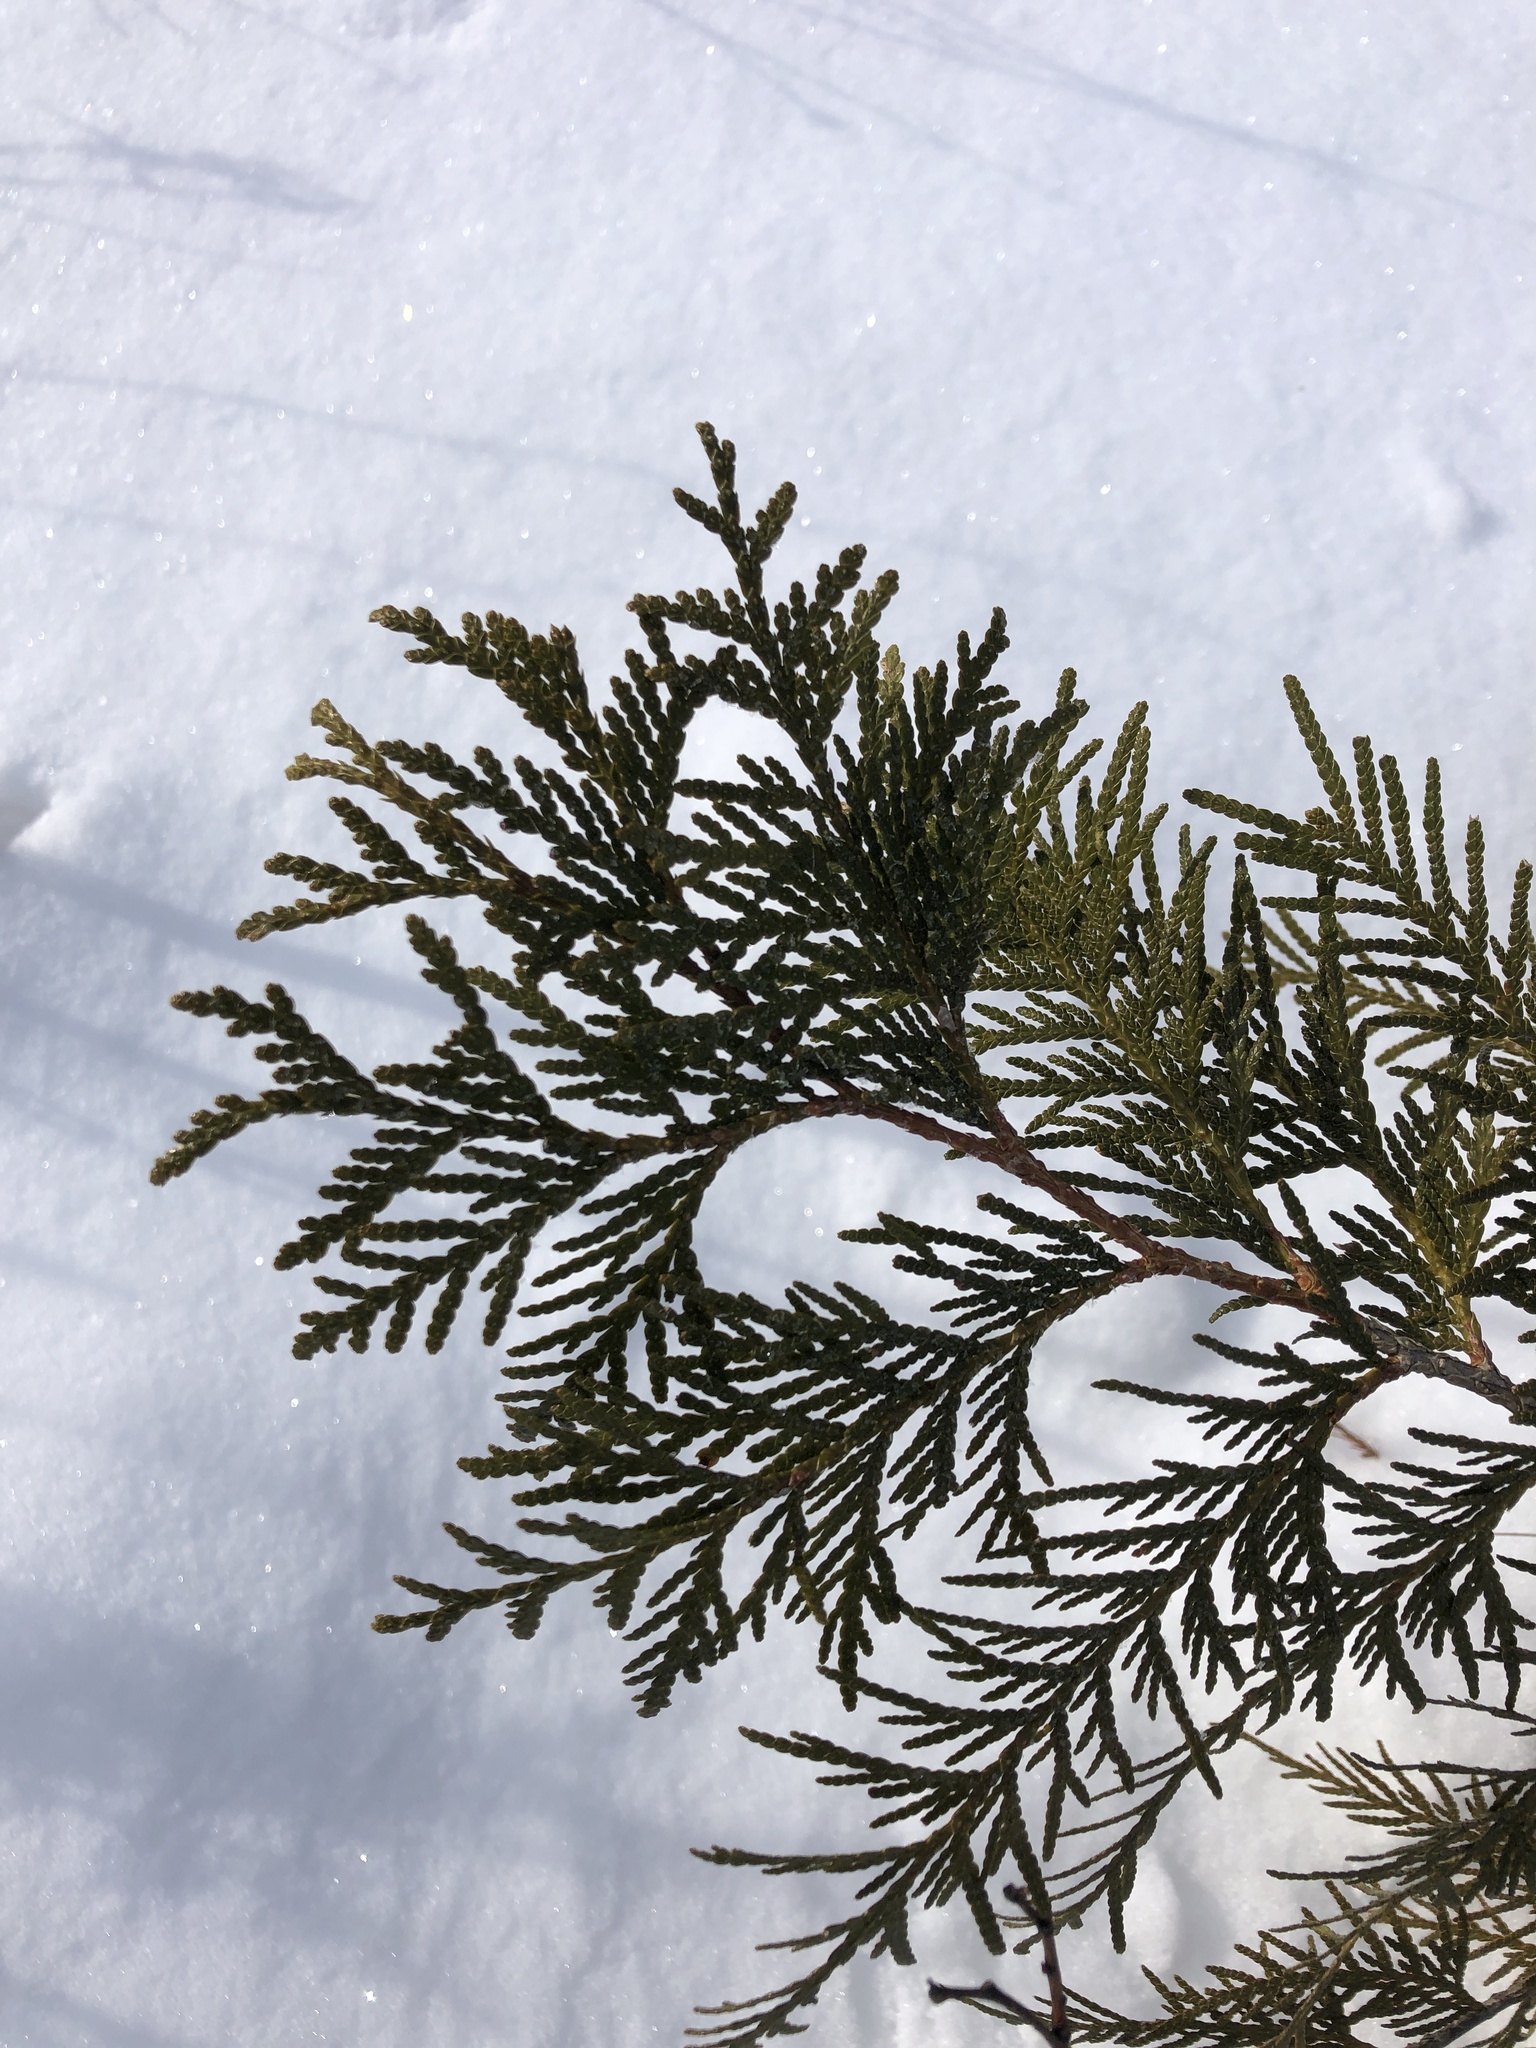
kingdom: Plantae
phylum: Tracheophyta
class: Pinopsida
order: Pinales
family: Cupressaceae
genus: Thuja
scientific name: Thuja occidentalis
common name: Northern white-cedar
